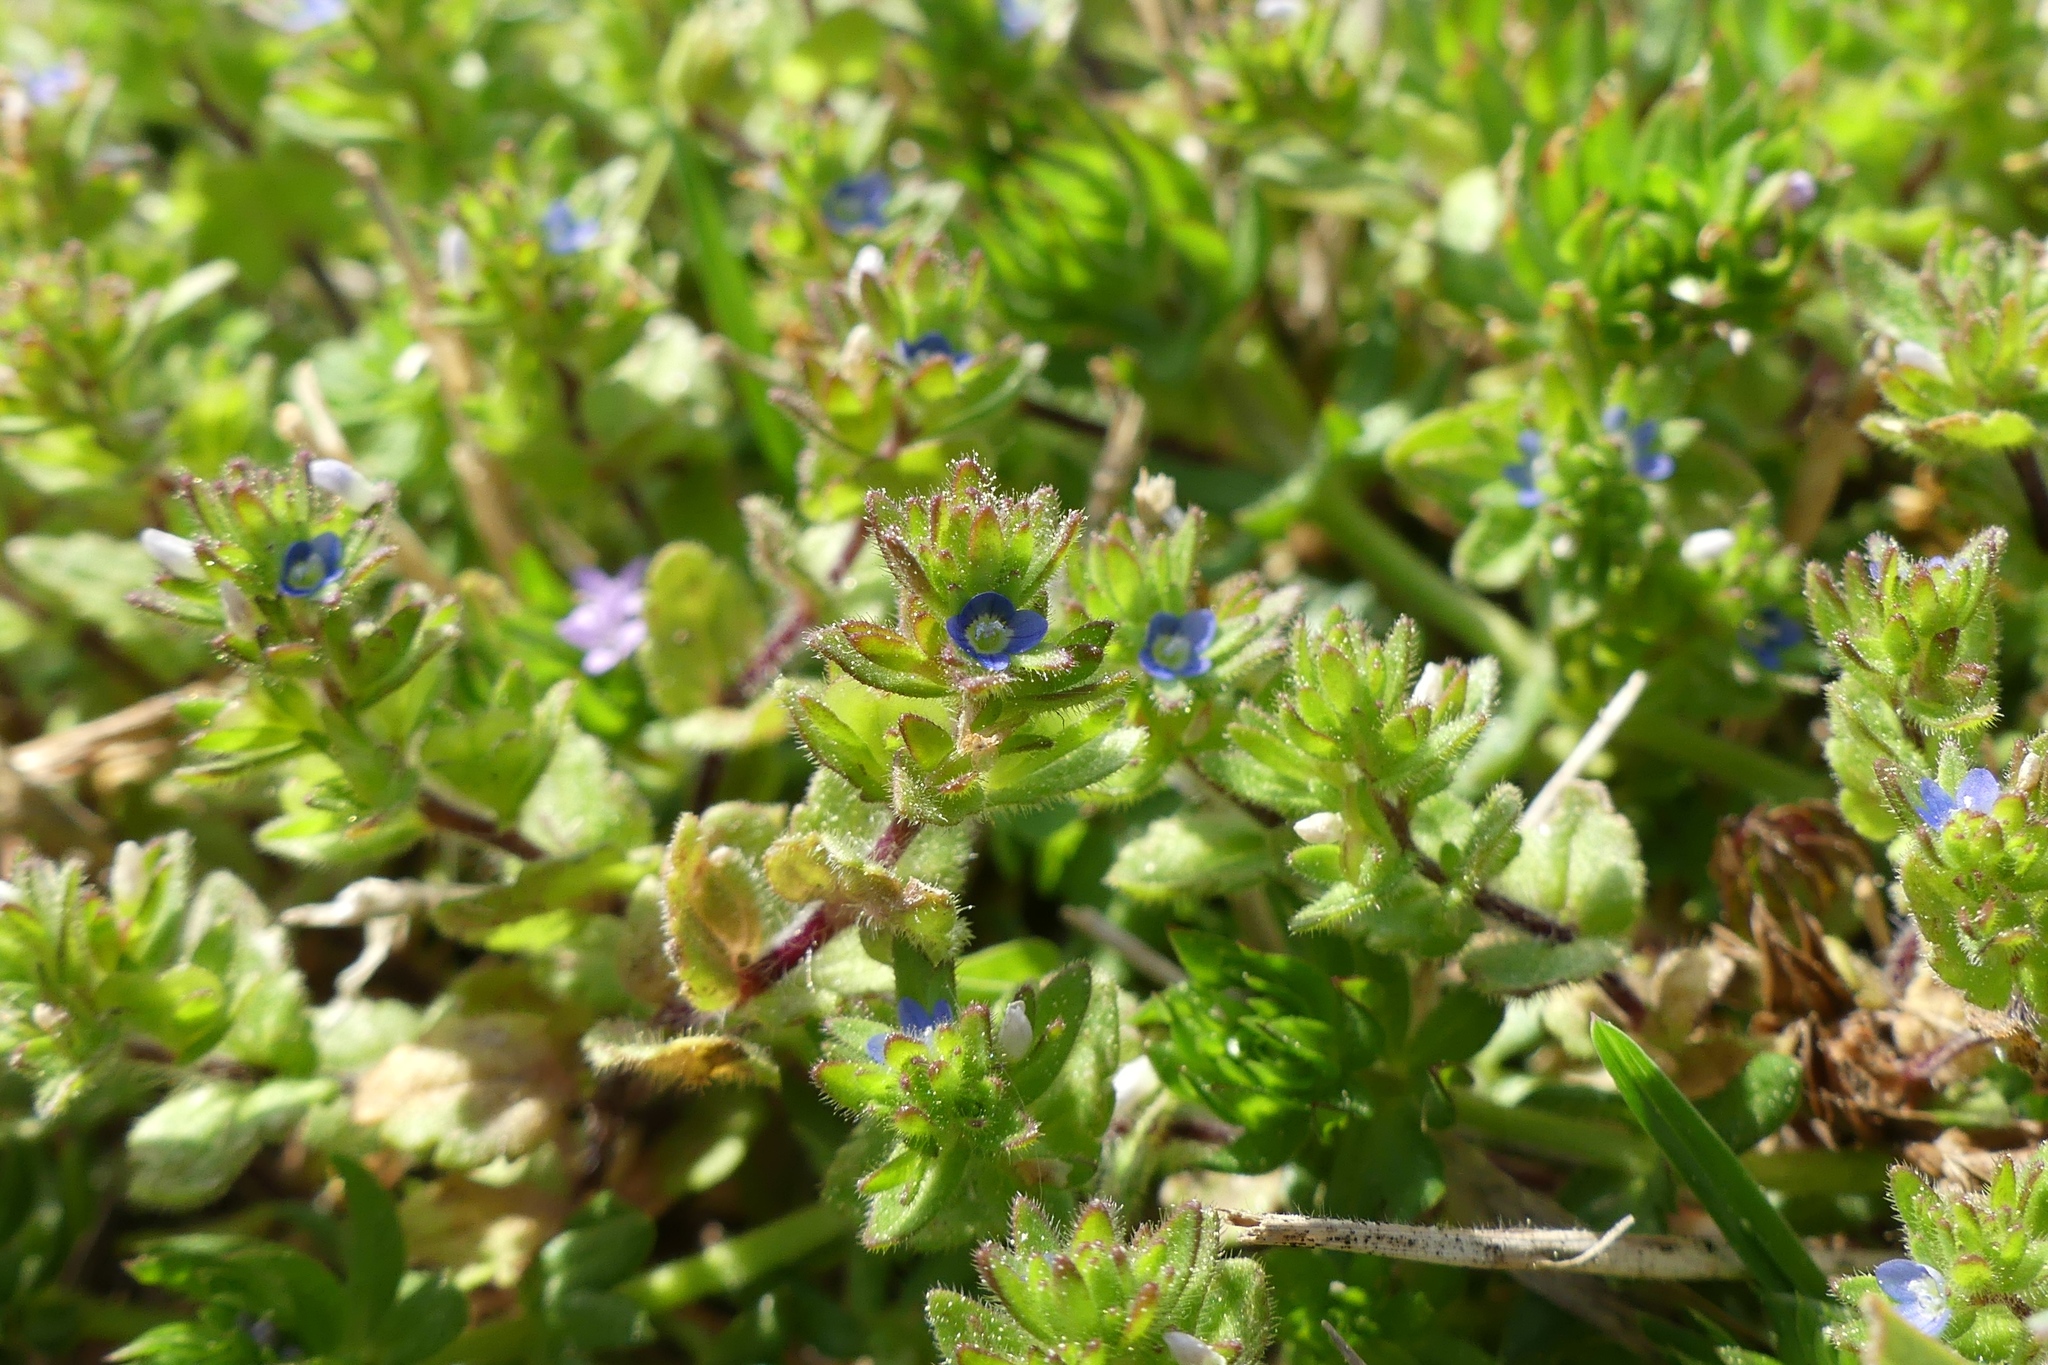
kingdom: Plantae
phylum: Tracheophyta
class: Magnoliopsida
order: Lamiales
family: Plantaginaceae
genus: Veronica
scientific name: Veronica arvensis
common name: Corn speedwell
